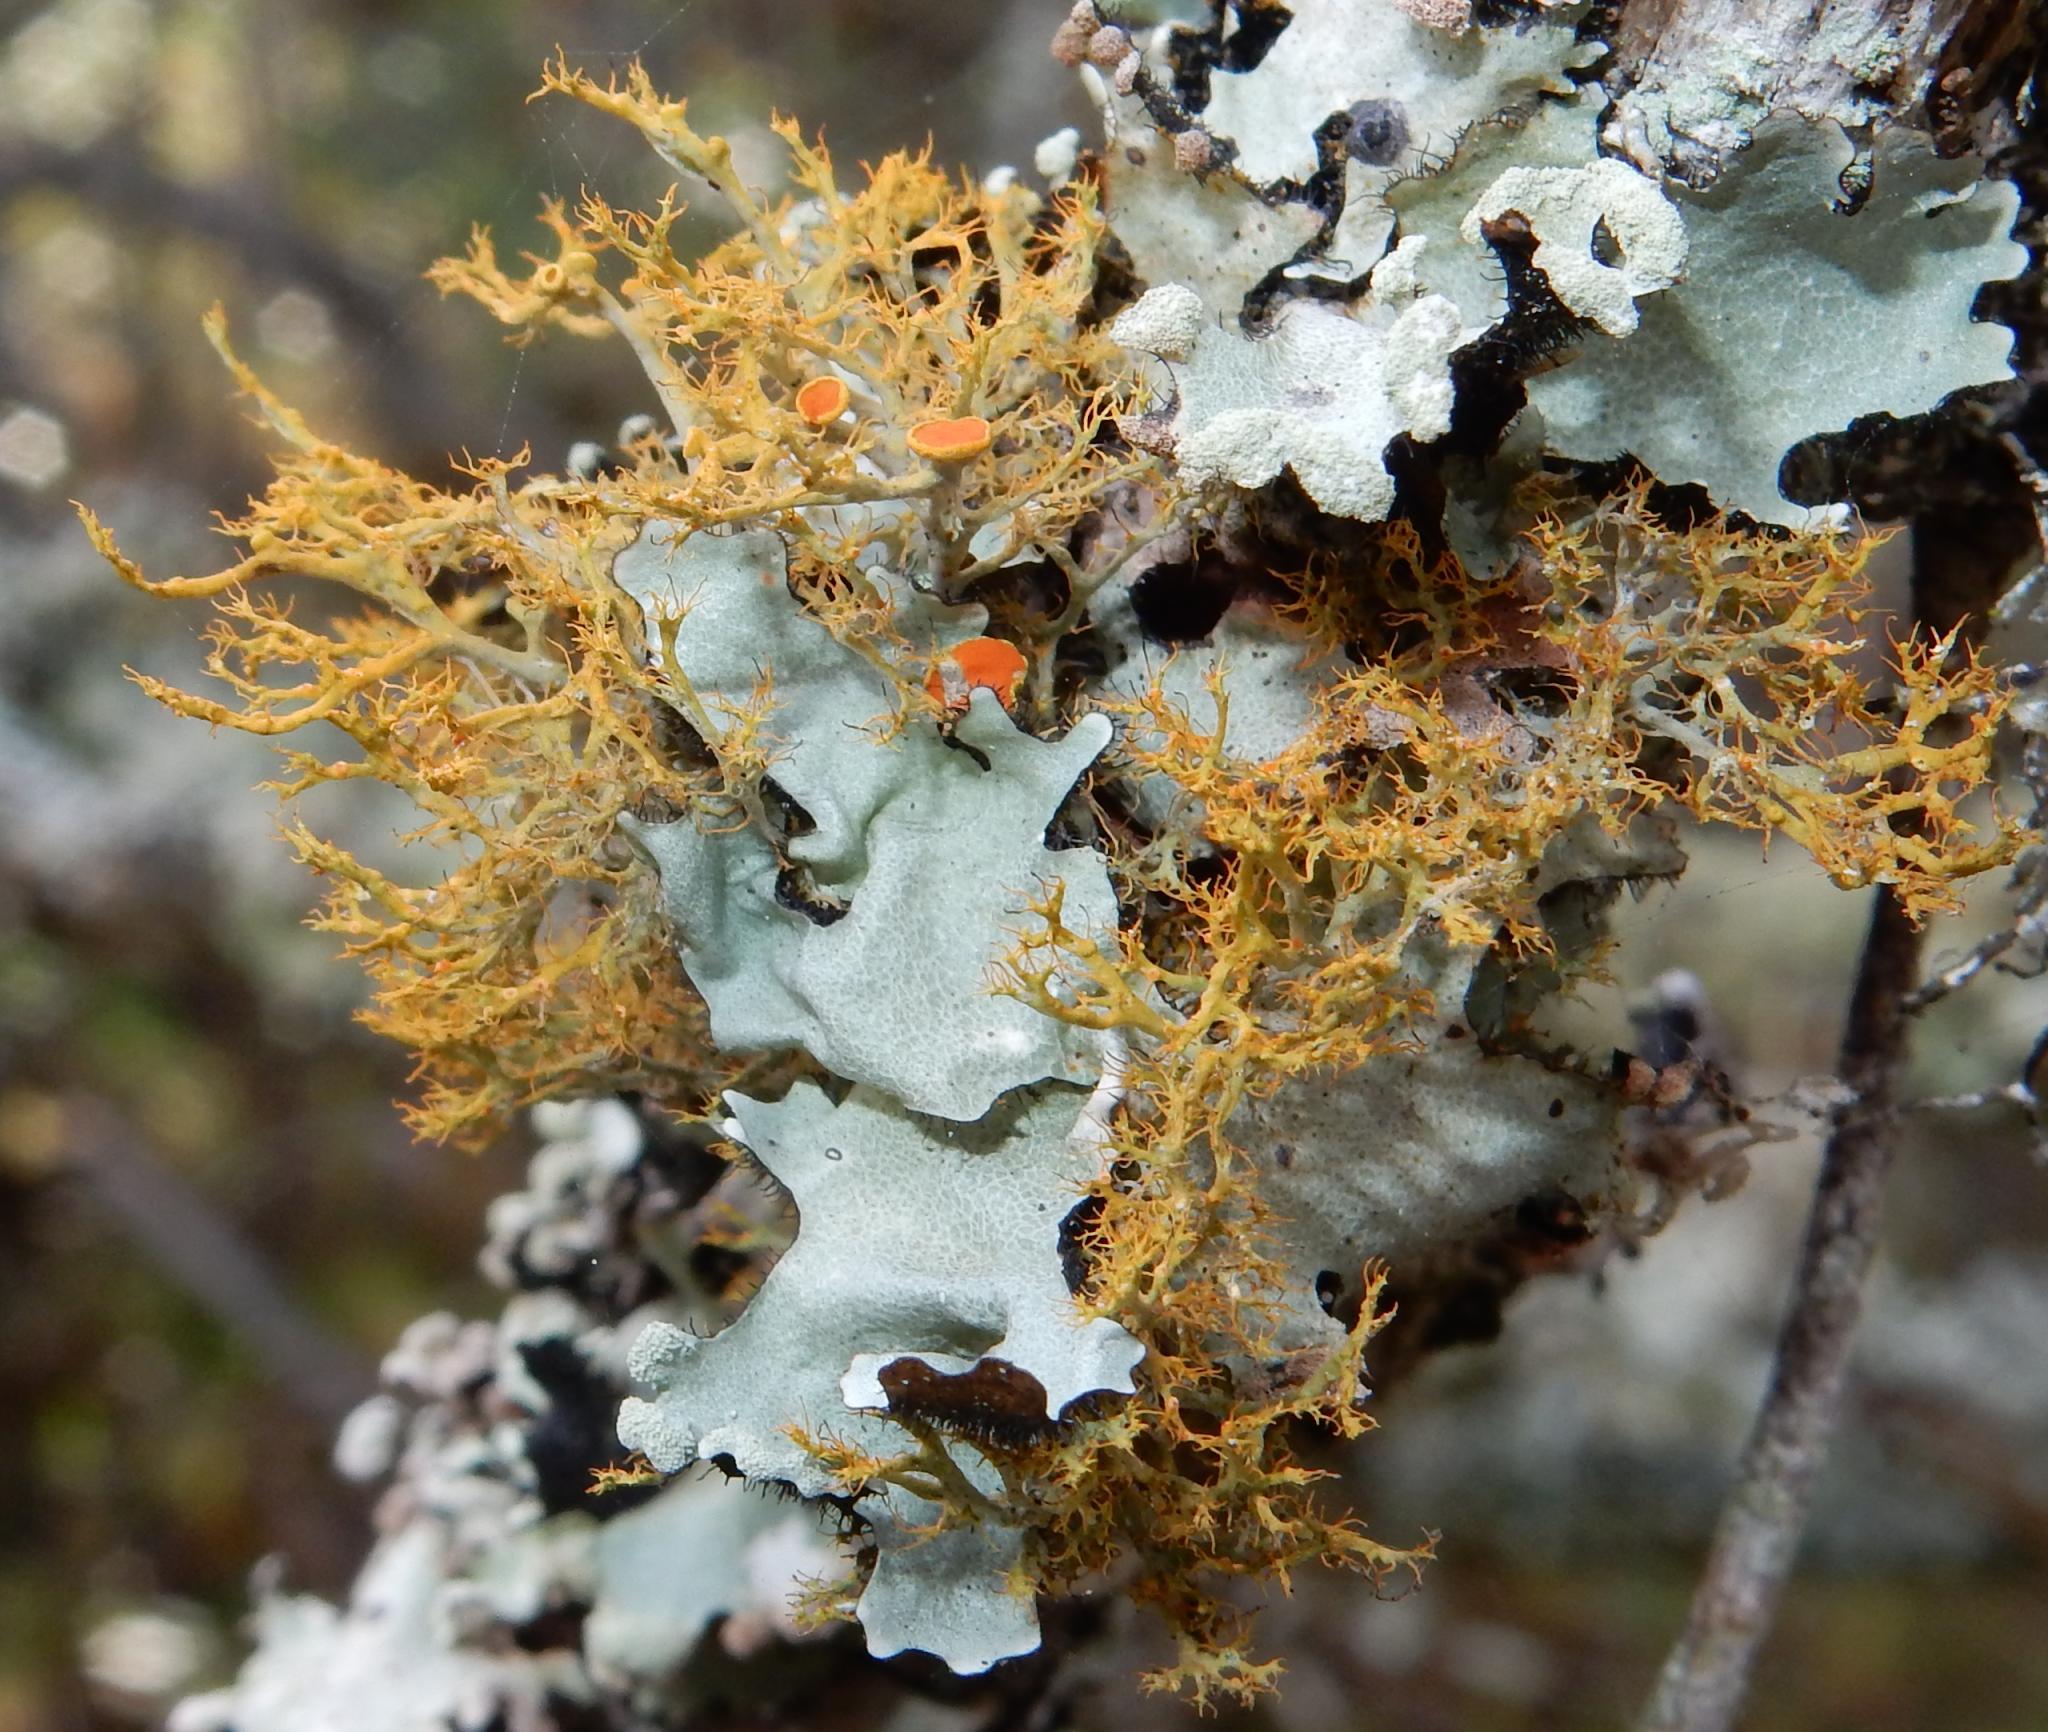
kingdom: Fungi
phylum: Ascomycota
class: Lecanoromycetes
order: Teloschistales
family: Teloschistaceae
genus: Teloschistes
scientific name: Teloschistes inflatus
